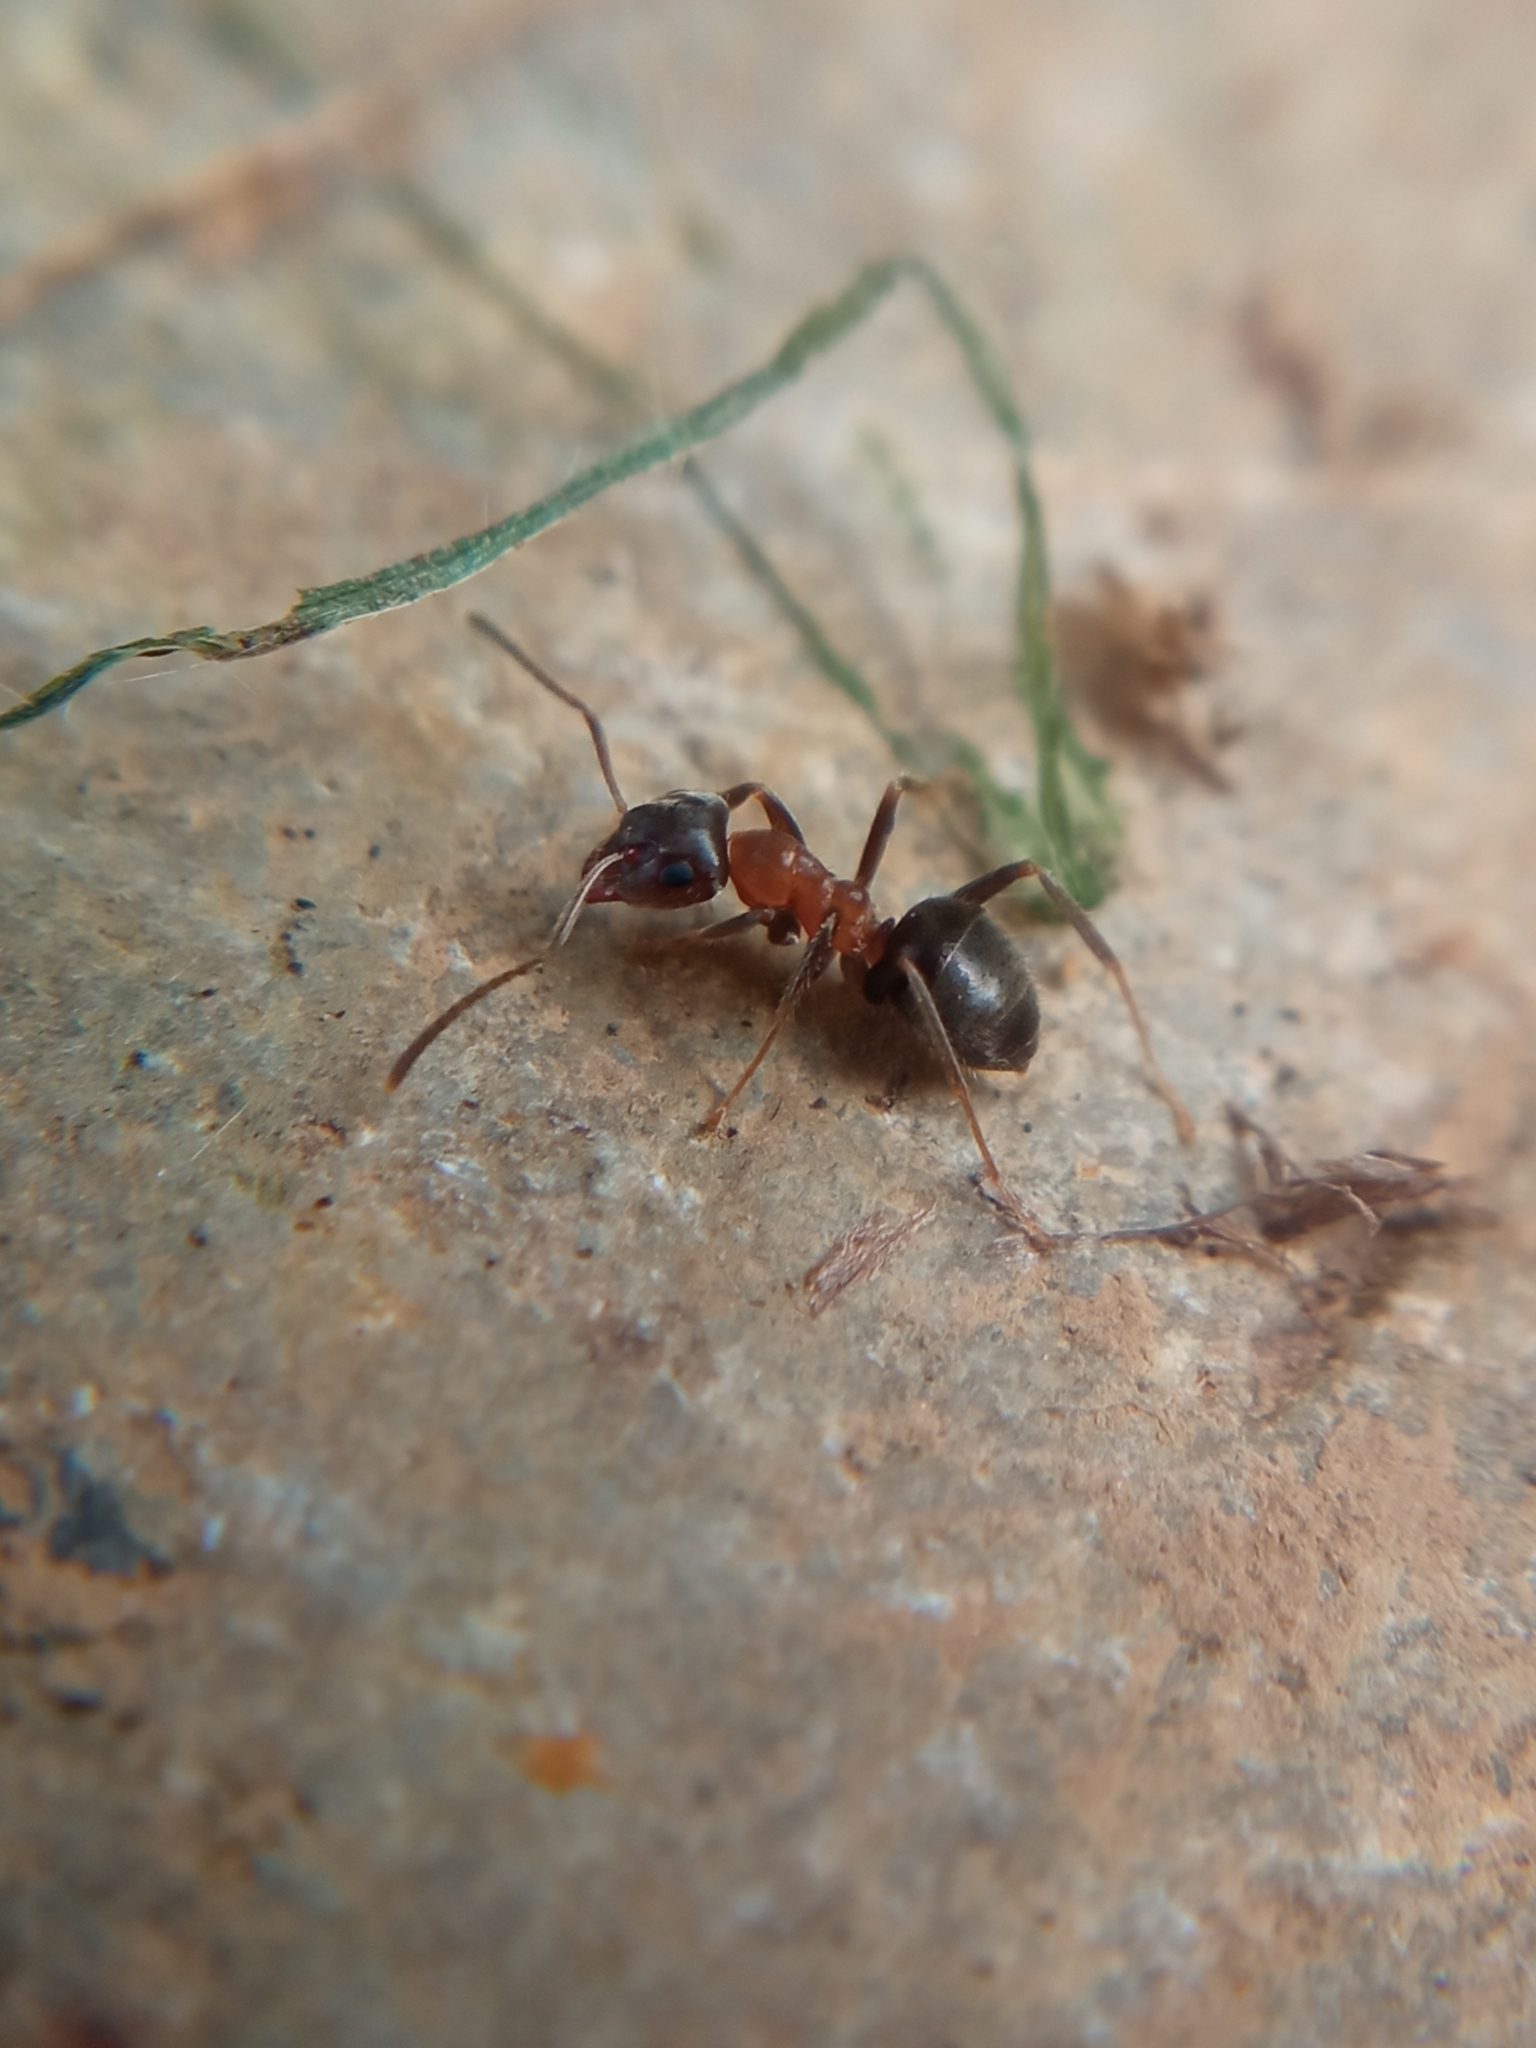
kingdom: Animalia
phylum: Arthropoda
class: Insecta
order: Hymenoptera
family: Formicidae
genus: Lasius
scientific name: Lasius emarginatus
